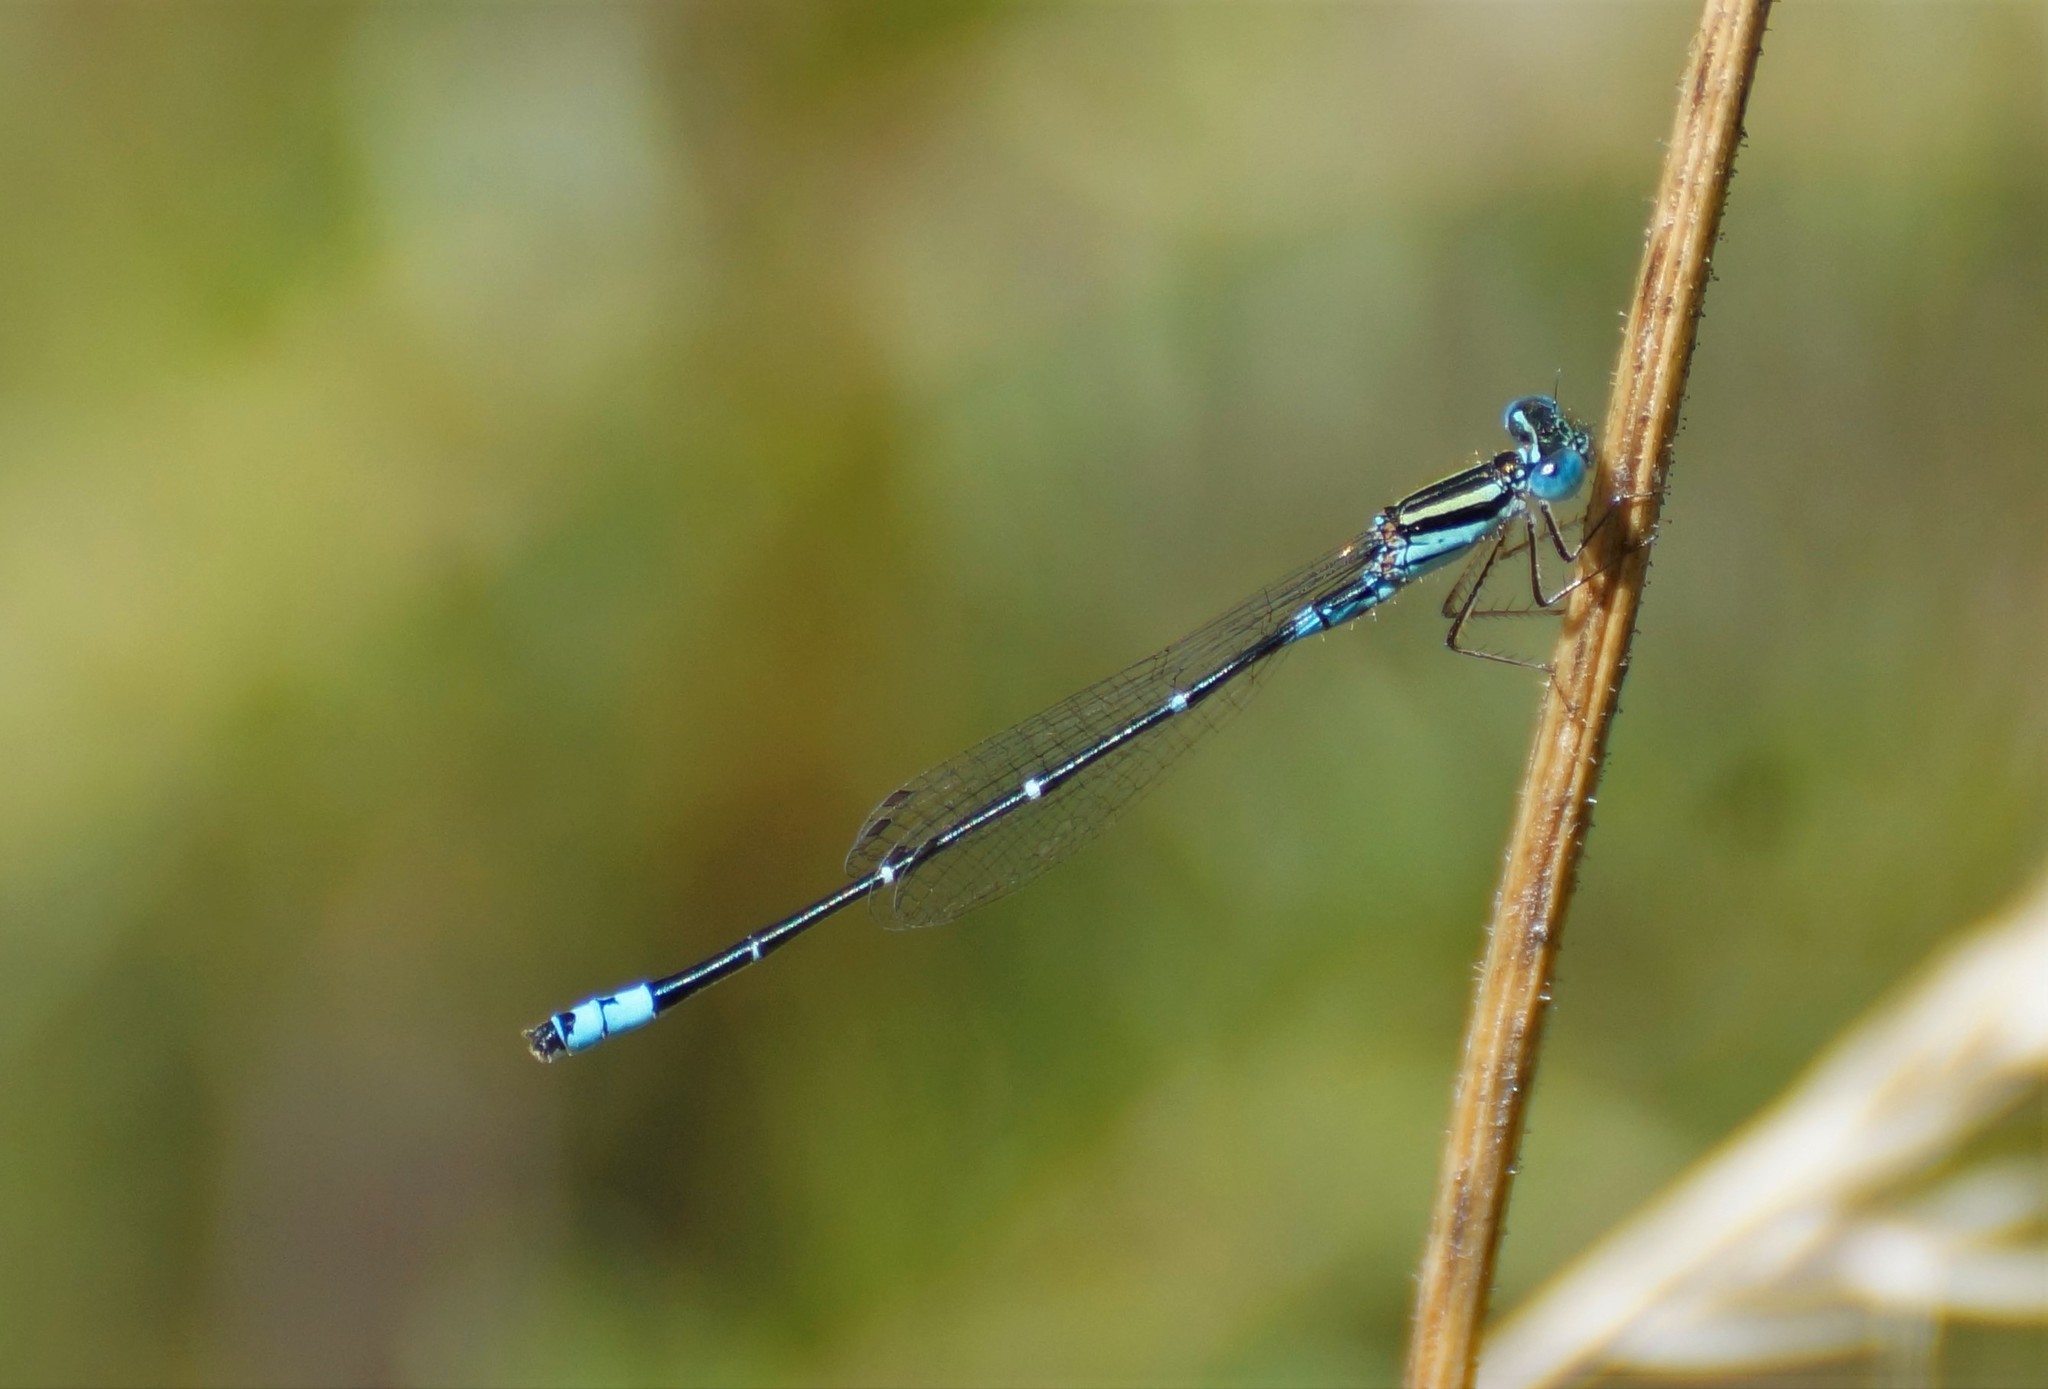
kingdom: Animalia
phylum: Arthropoda
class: Insecta
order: Odonata
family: Coenagrionidae
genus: Austroagrion
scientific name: Austroagrion watsoni
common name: Eastern billabongfly
